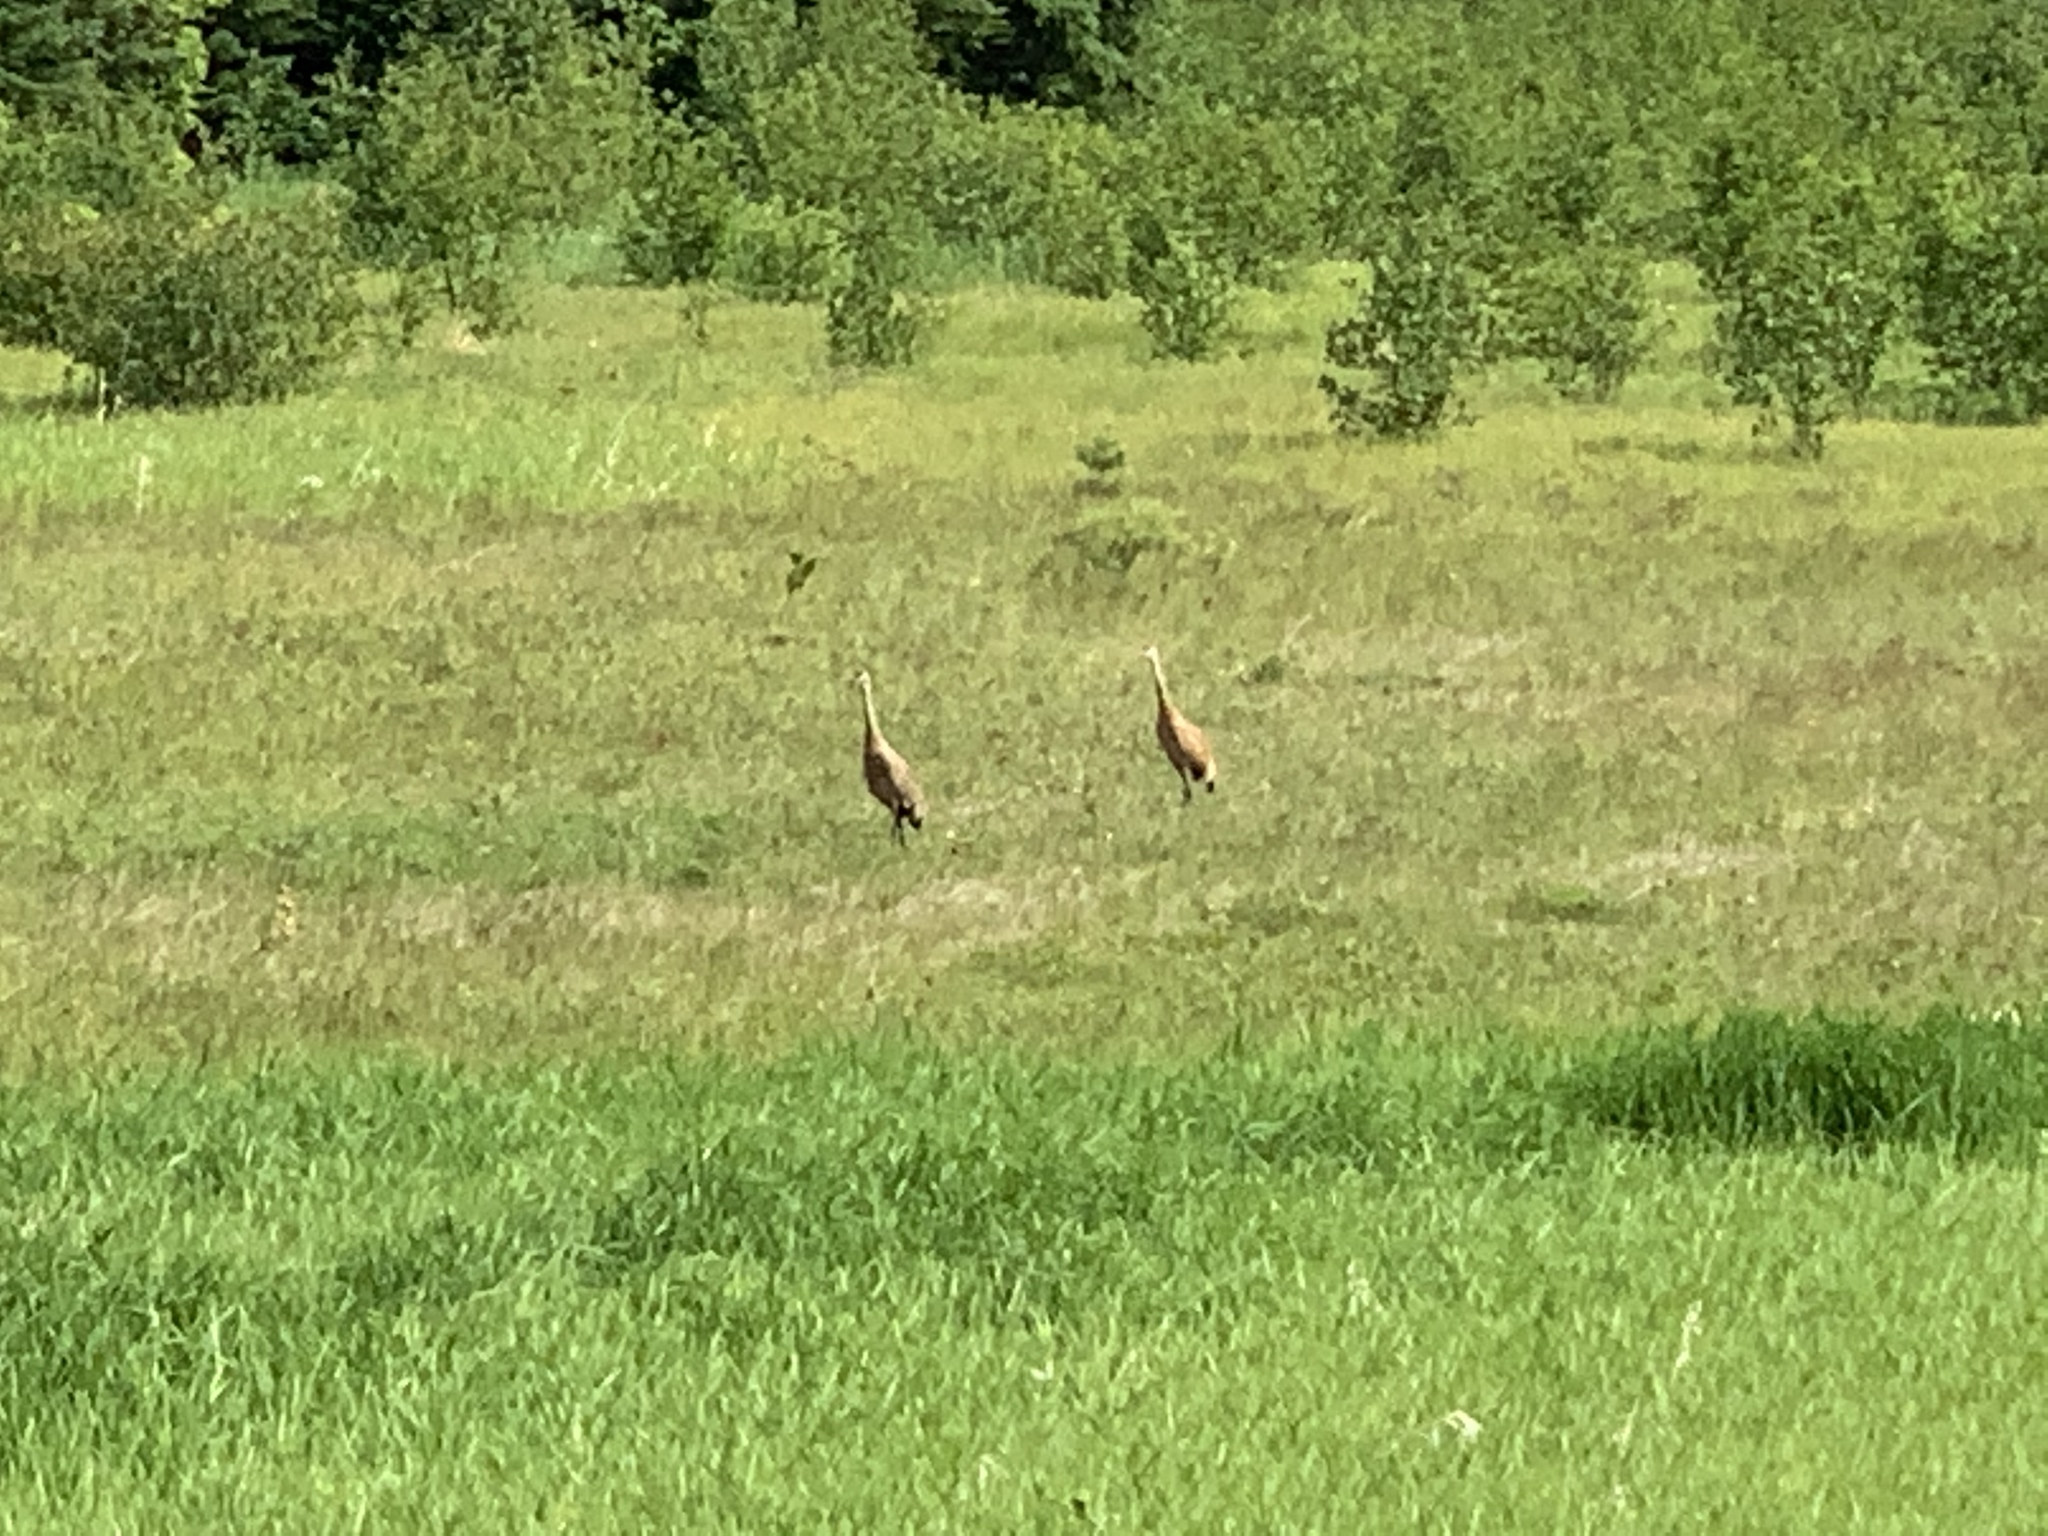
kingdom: Animalia
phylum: Chordata
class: Aves
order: Gruiformes
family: Gruidae
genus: Grus
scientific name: Grus canadensis
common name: Sandhill crane
